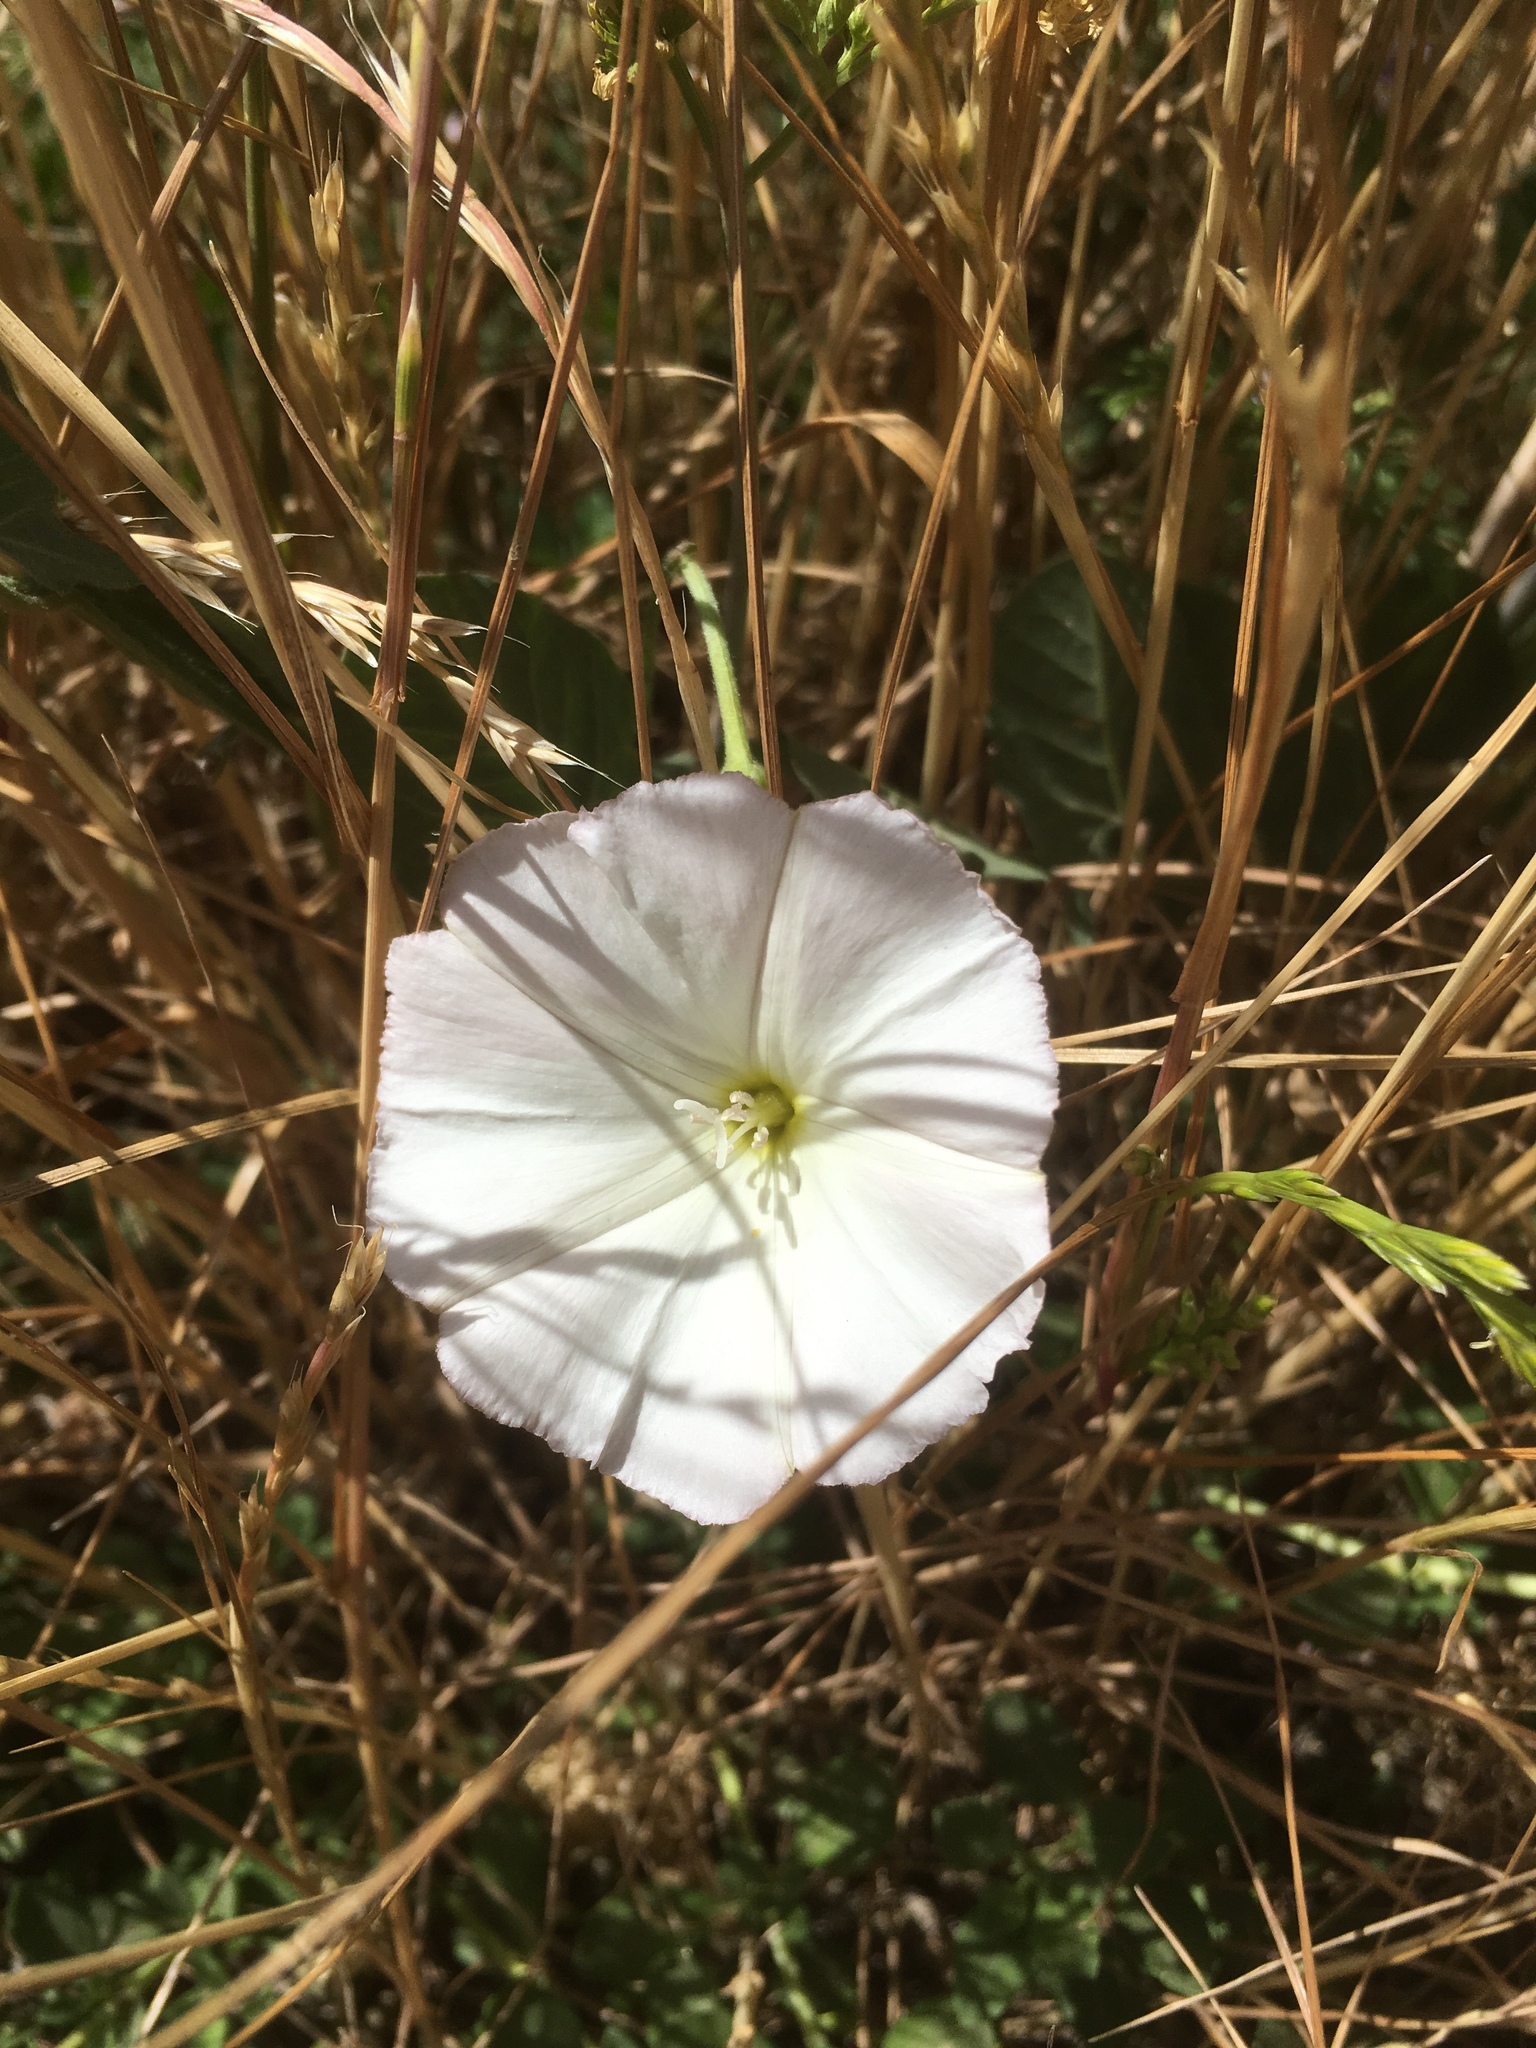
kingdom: Plantae
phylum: Tracheophyta
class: Magnoliopsida
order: Solanales
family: Convolvulaceae
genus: Convolvulus
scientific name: Convolvulus arvensis
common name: Field bindweed
